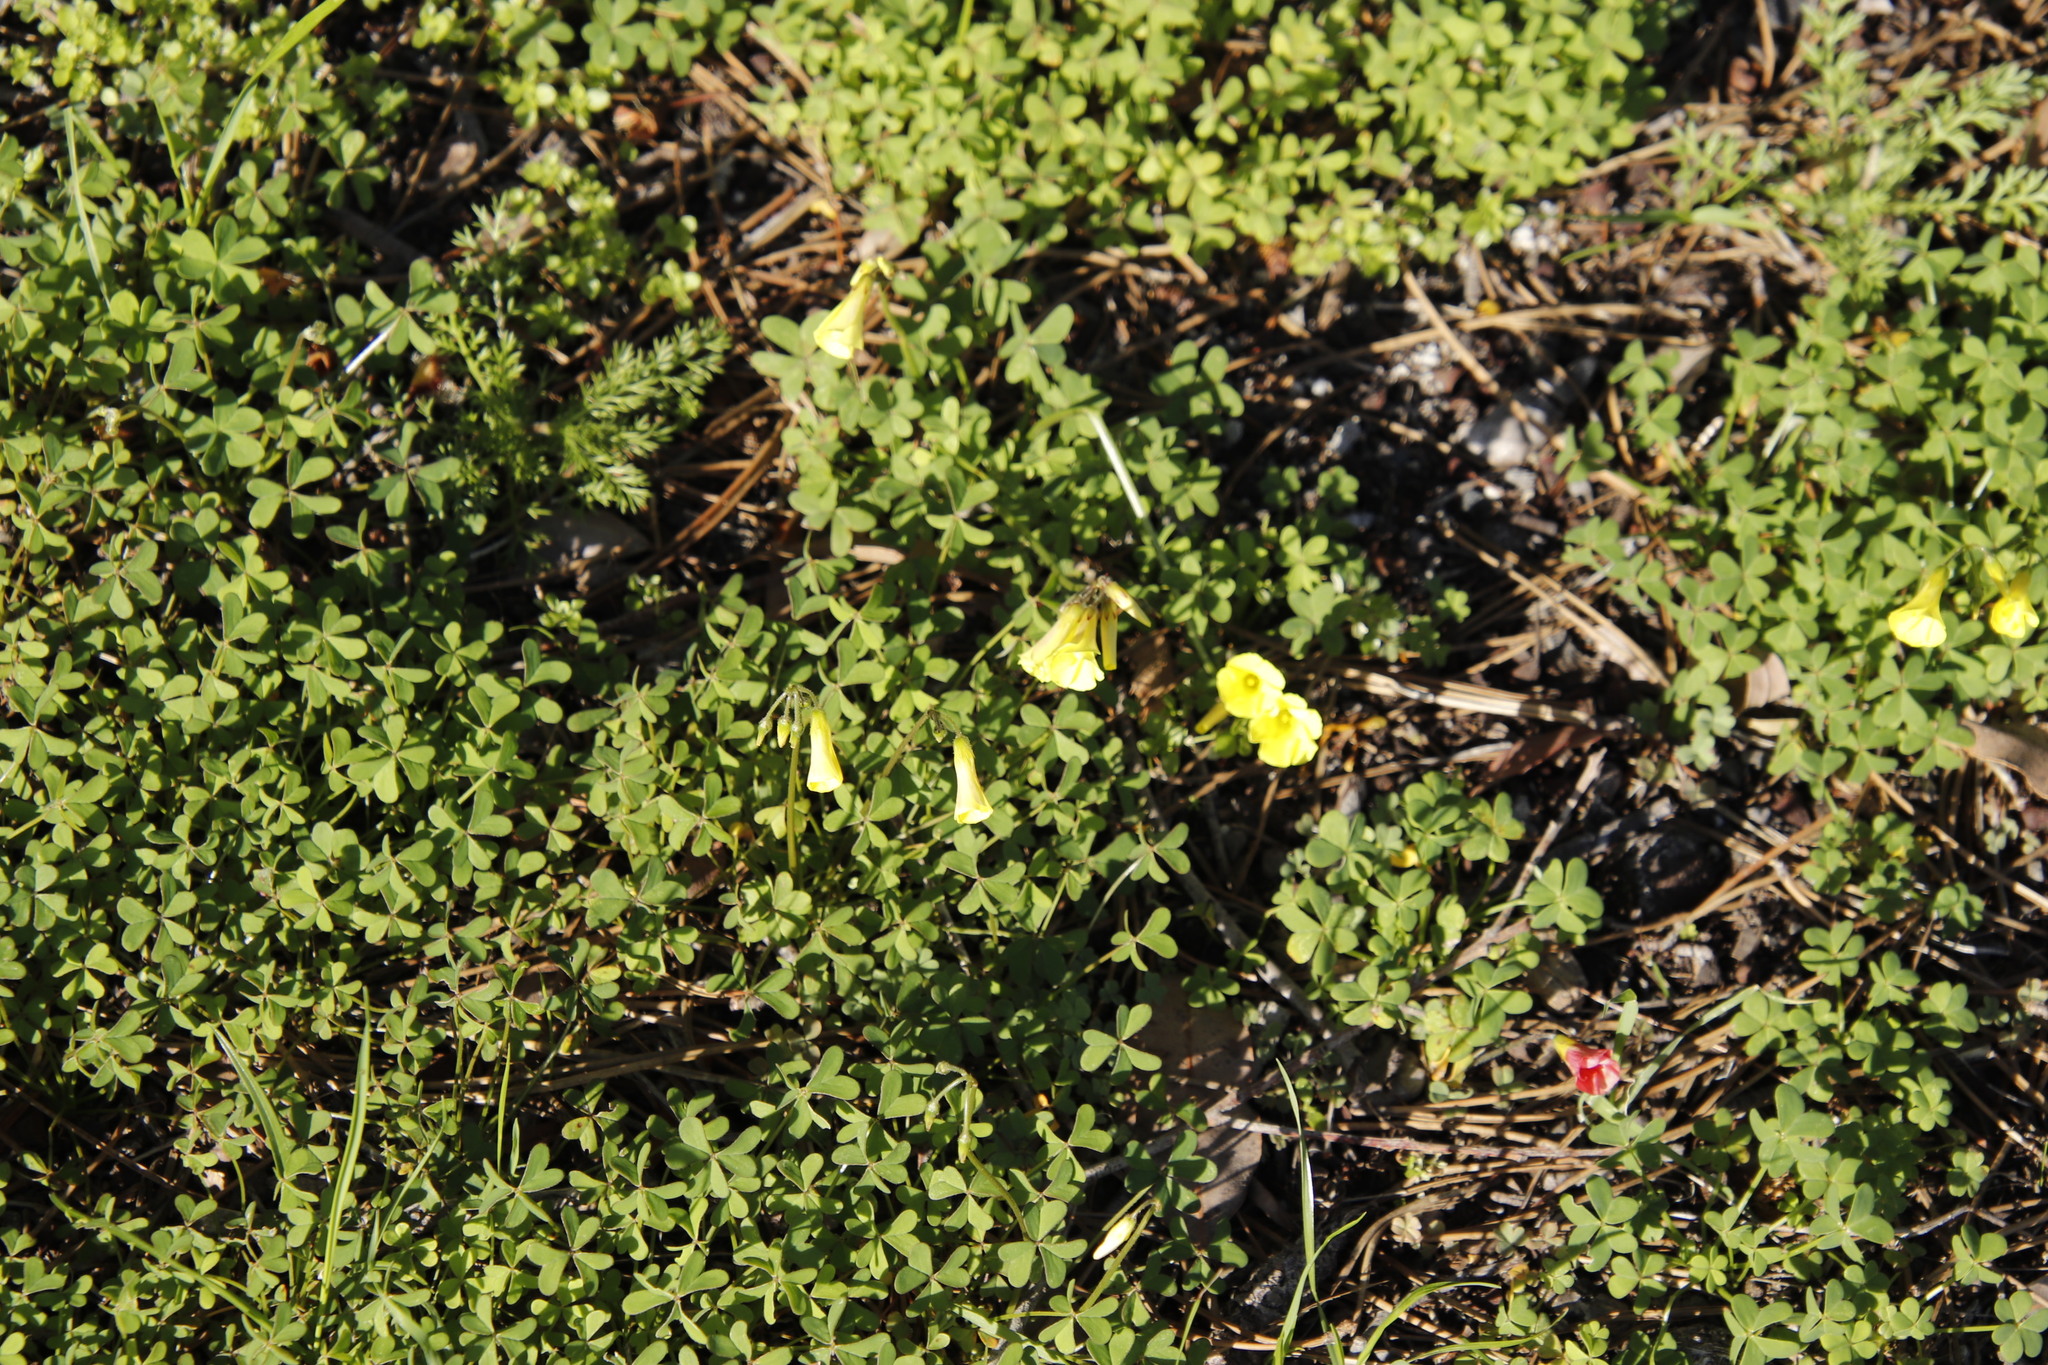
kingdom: Plantae
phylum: Tracheophyta
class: Magnoliopsida
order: Oxalidales
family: Oxalidaceae
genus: Oxalis
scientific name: Oxalis pes-caprae
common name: Bermuda-buttercup
